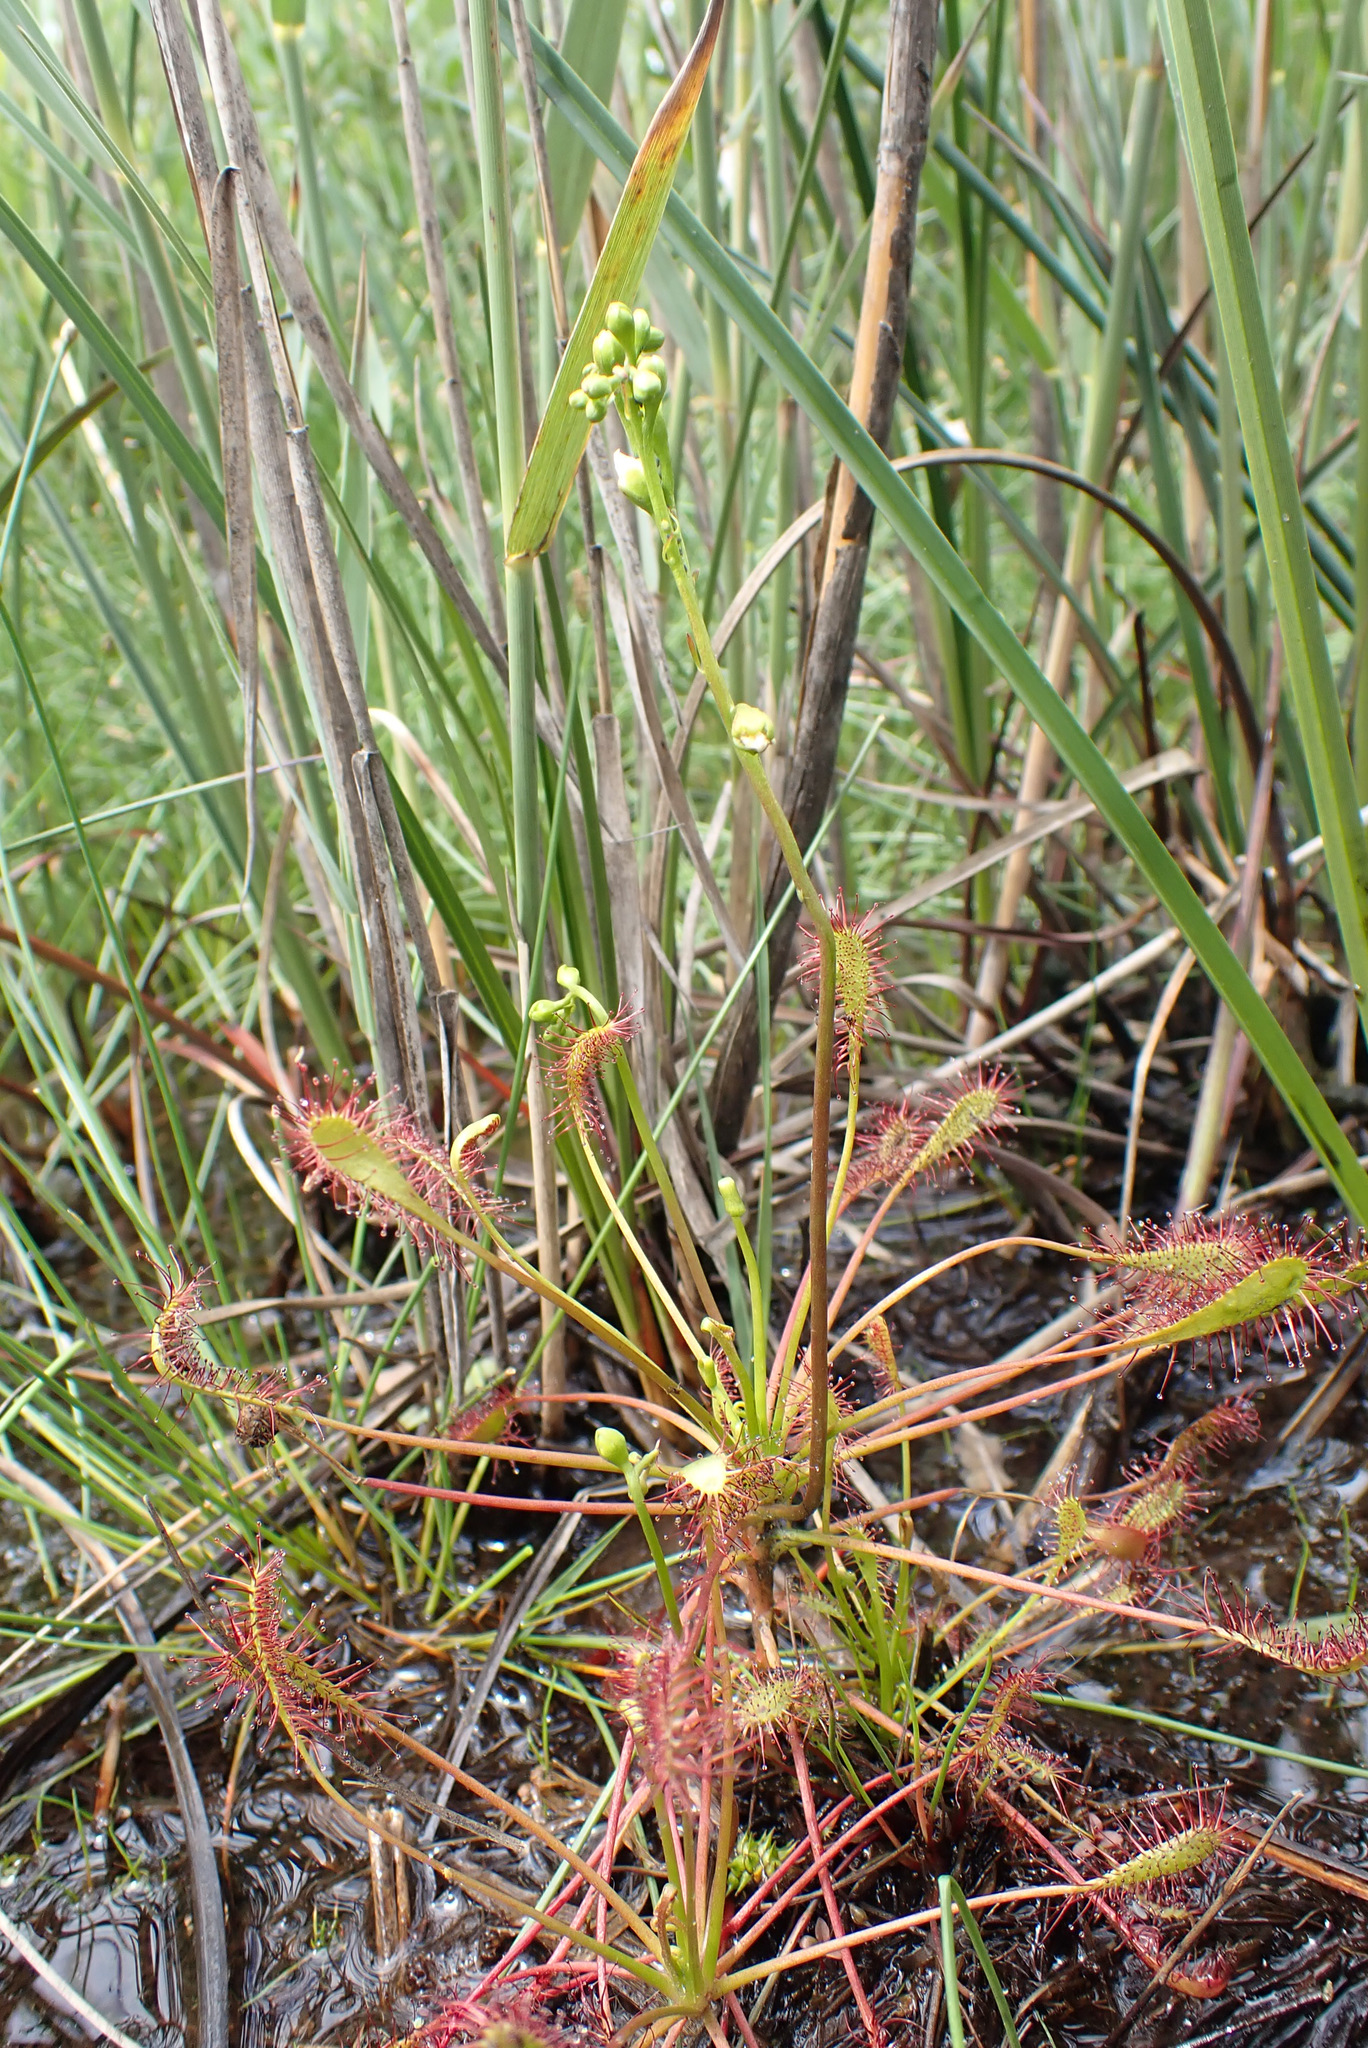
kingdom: Plantae
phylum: Tracheophyta
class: Magnoliopsida
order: Caryophyllales
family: Droseraceae
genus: Drosera
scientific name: Drosera intermedia
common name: Oblong-leaved sundew
